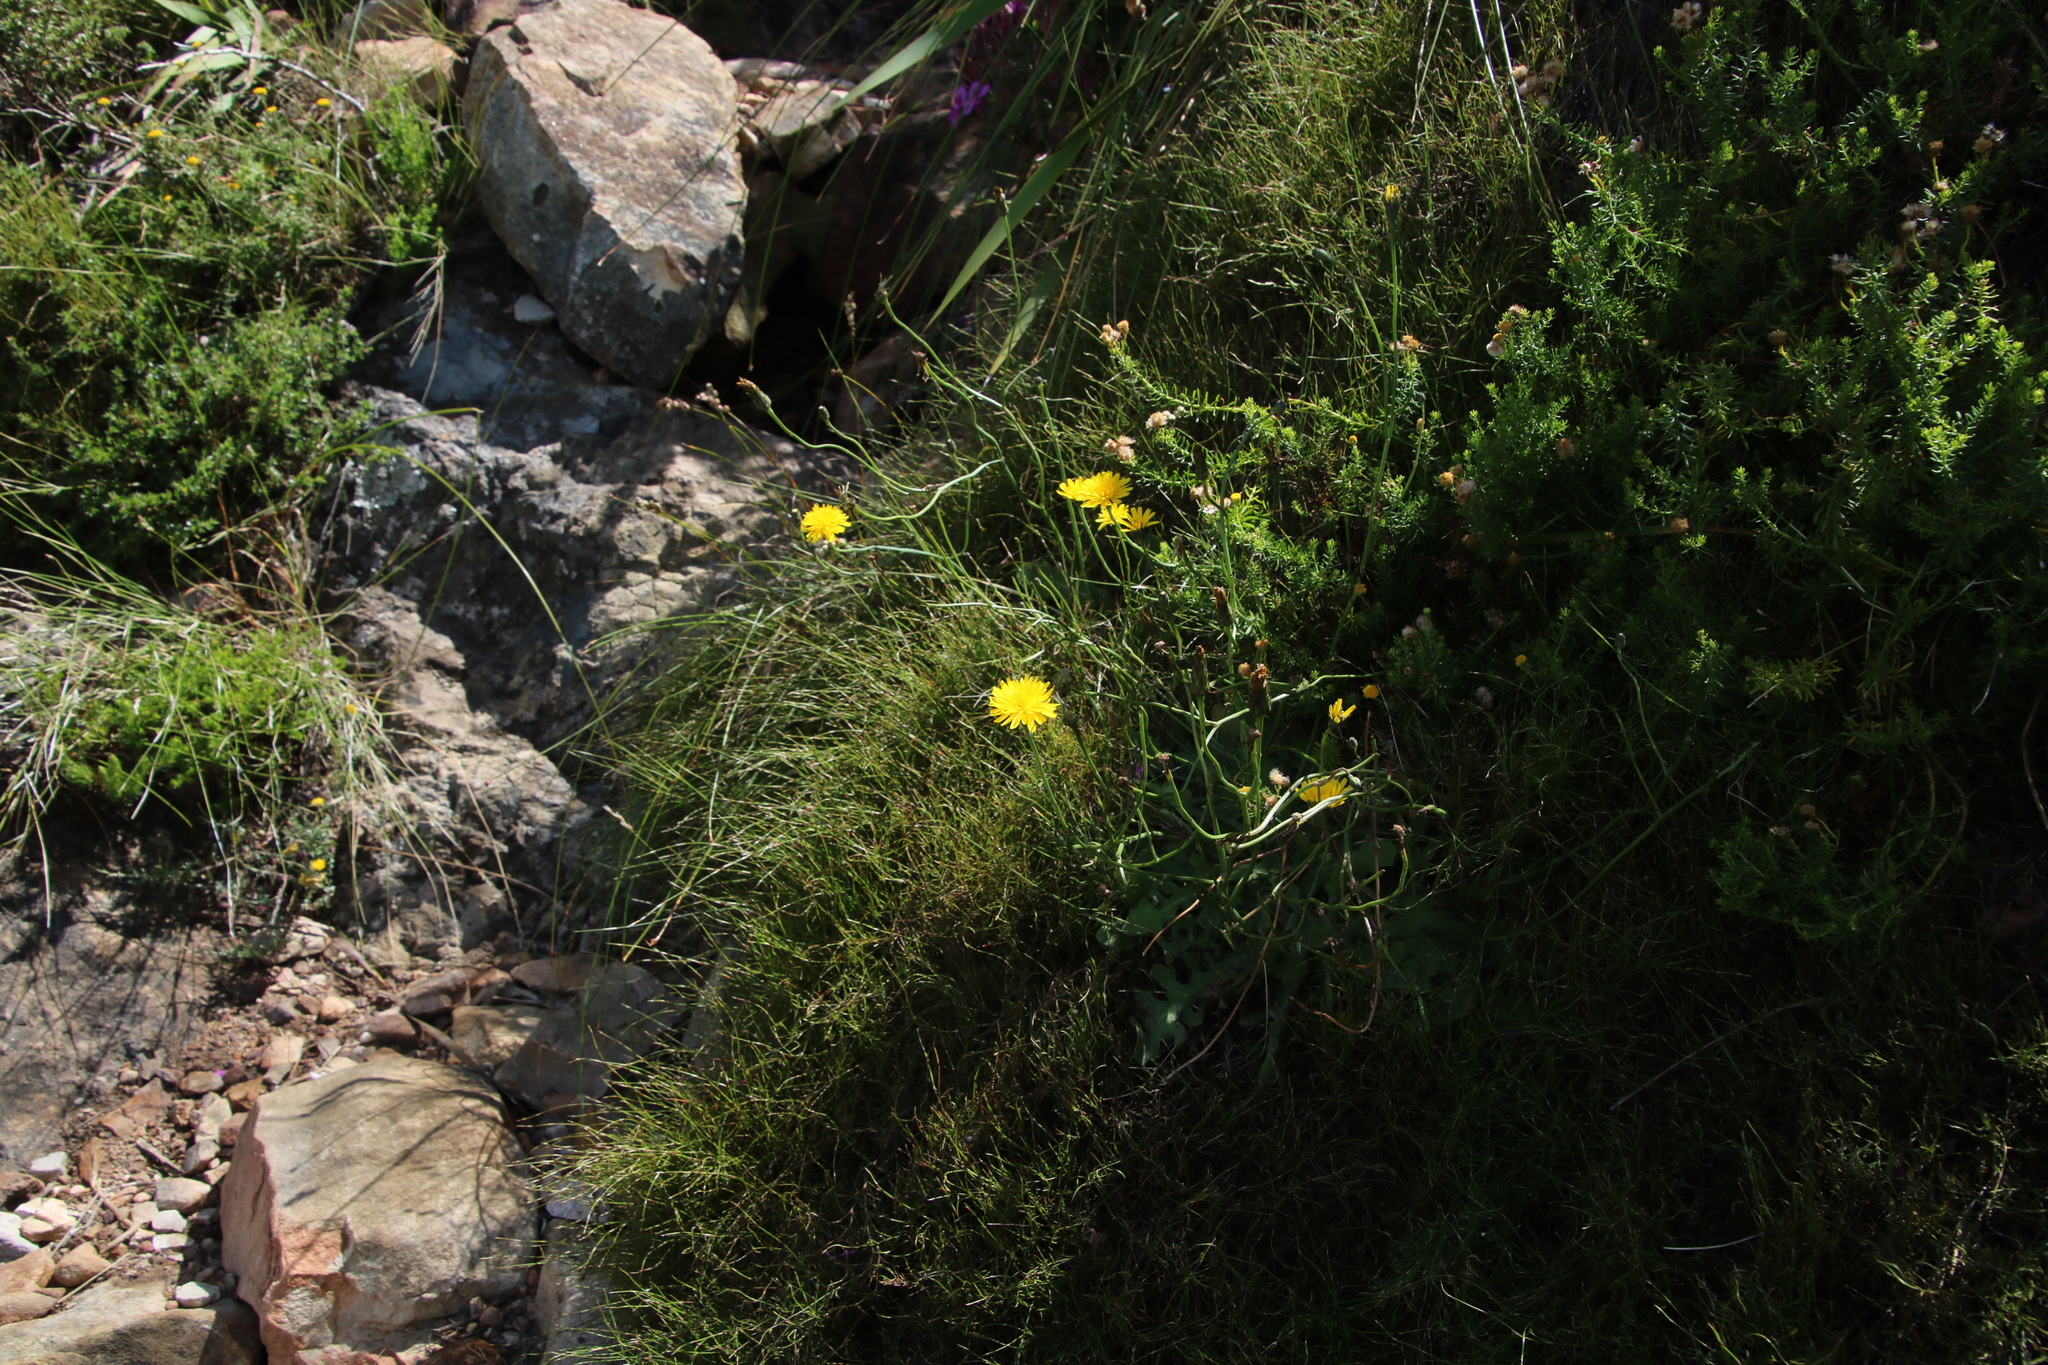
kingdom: Plantae
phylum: Tracheophyta
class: Magnoliopsida
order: Asterales
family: Asteraceae
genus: Hypochaeris
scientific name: Hypochaeris radicata
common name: Flatweed
